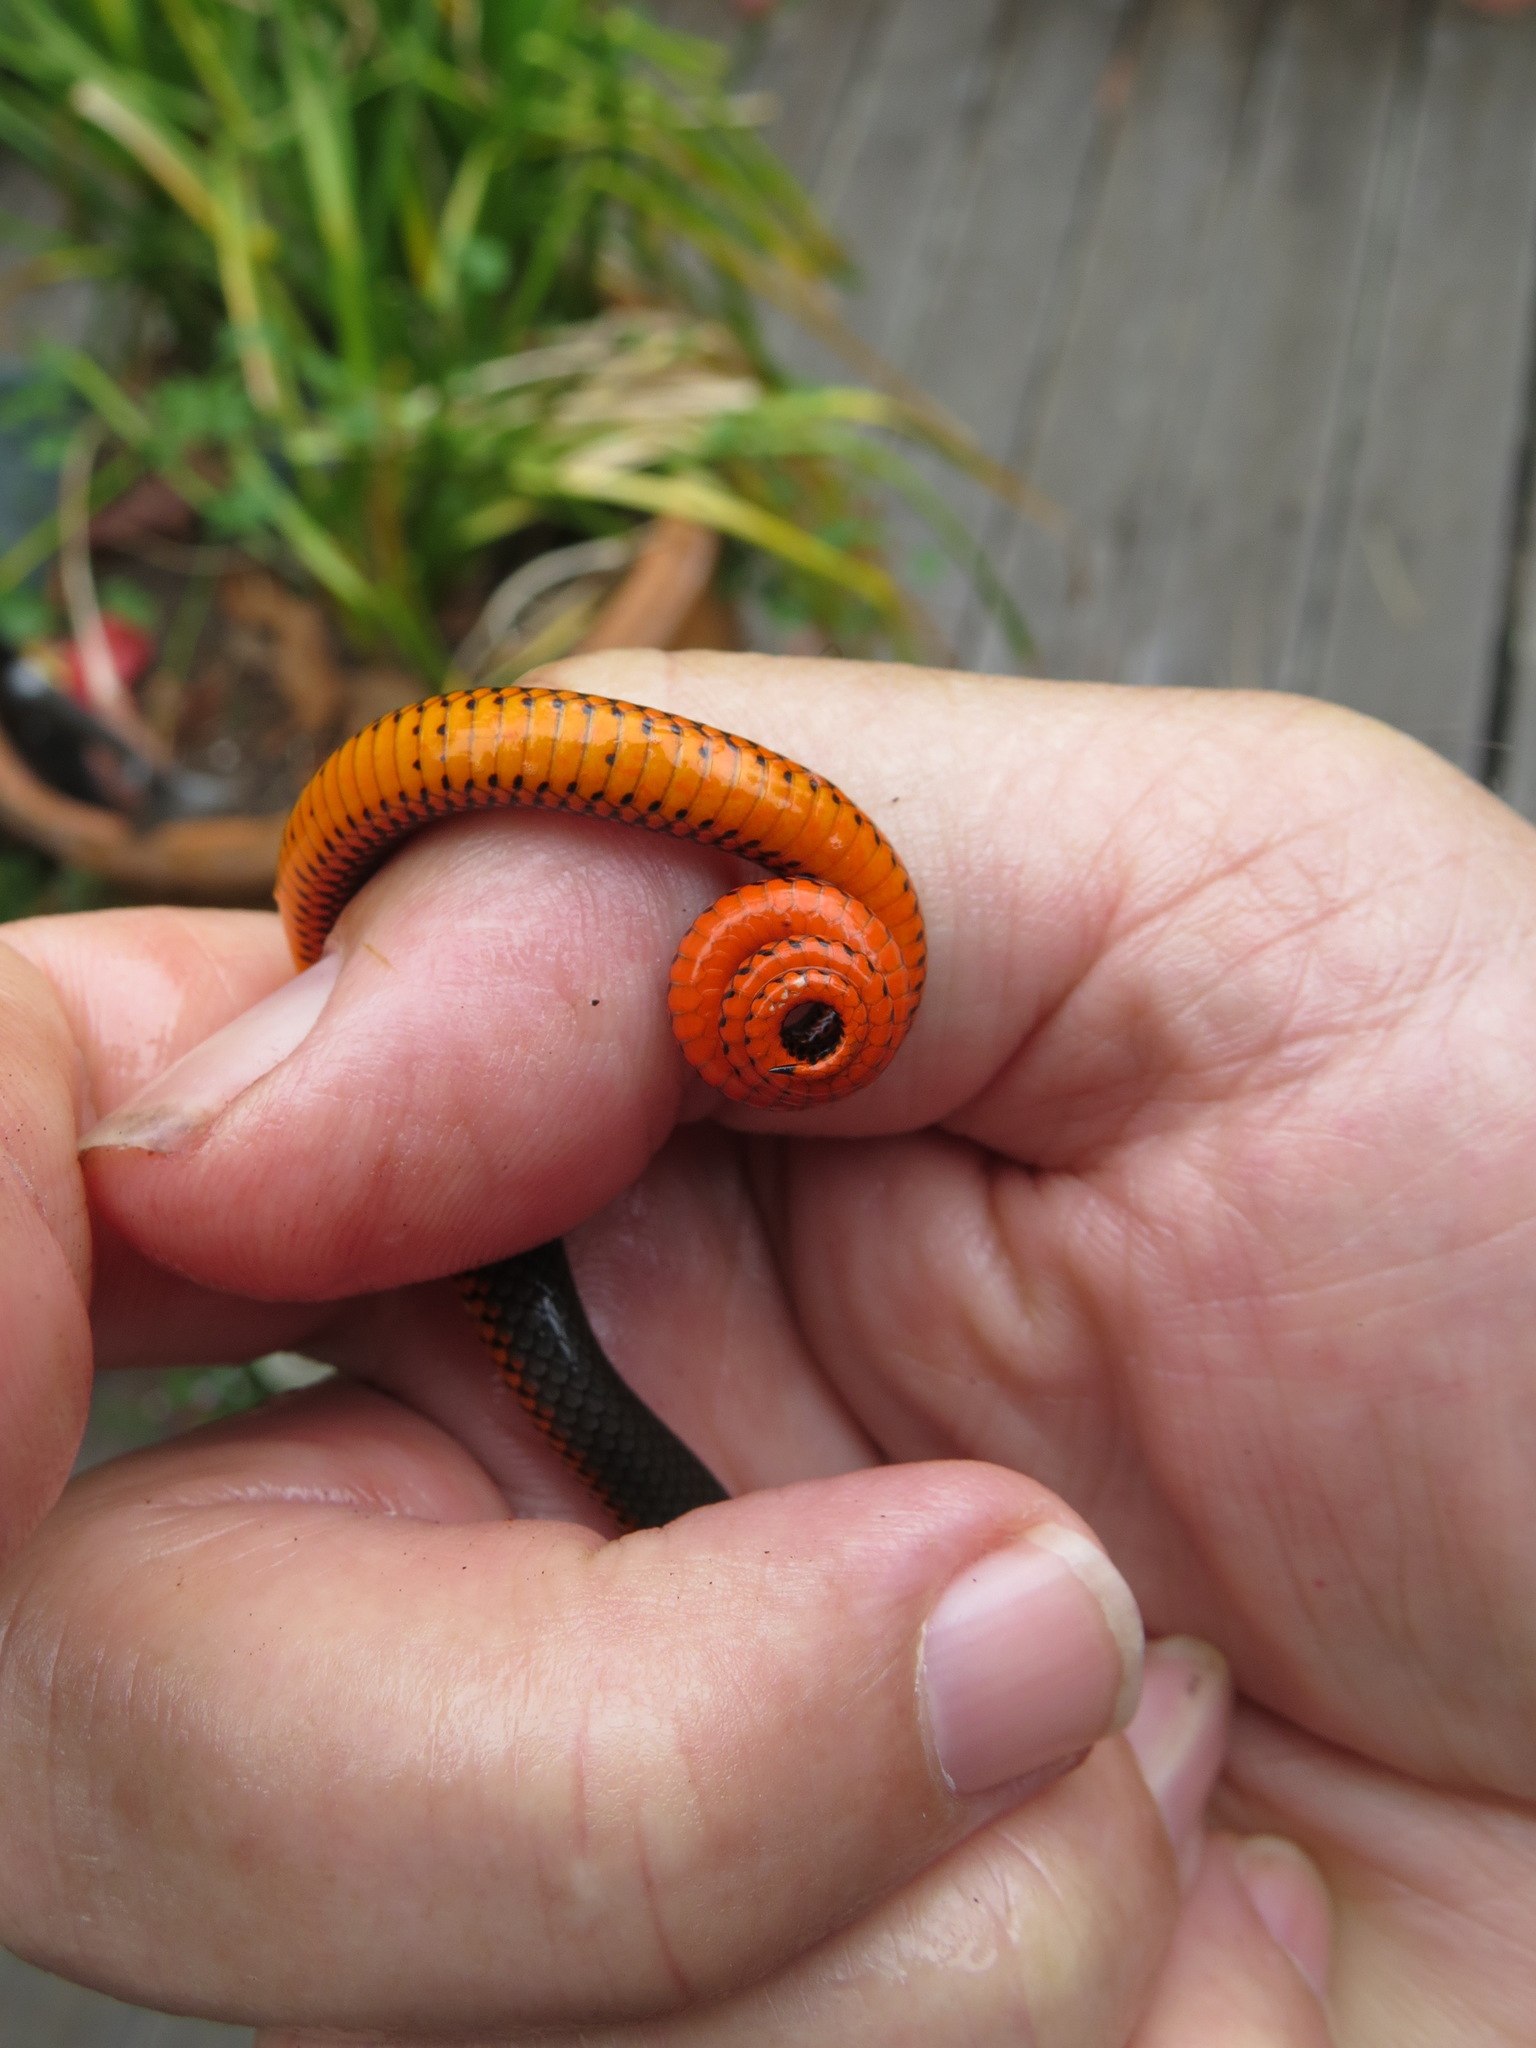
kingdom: Animalia
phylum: Chordata
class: Squamata
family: Colubridae
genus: Diadophis
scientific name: Diadophis punctatus
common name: Ringneck snake
